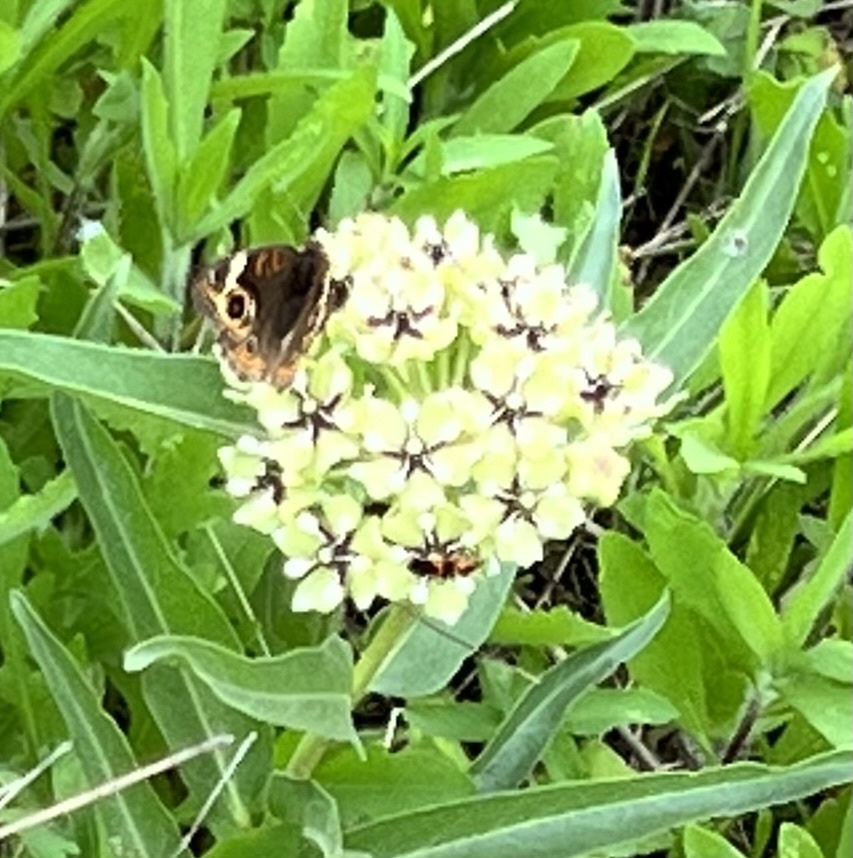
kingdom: Animalia
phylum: Arthropoda
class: Insecta
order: Lepidoptera
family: Nymphalidae
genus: Junonia
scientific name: Junonia coenia
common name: Common buckeye
